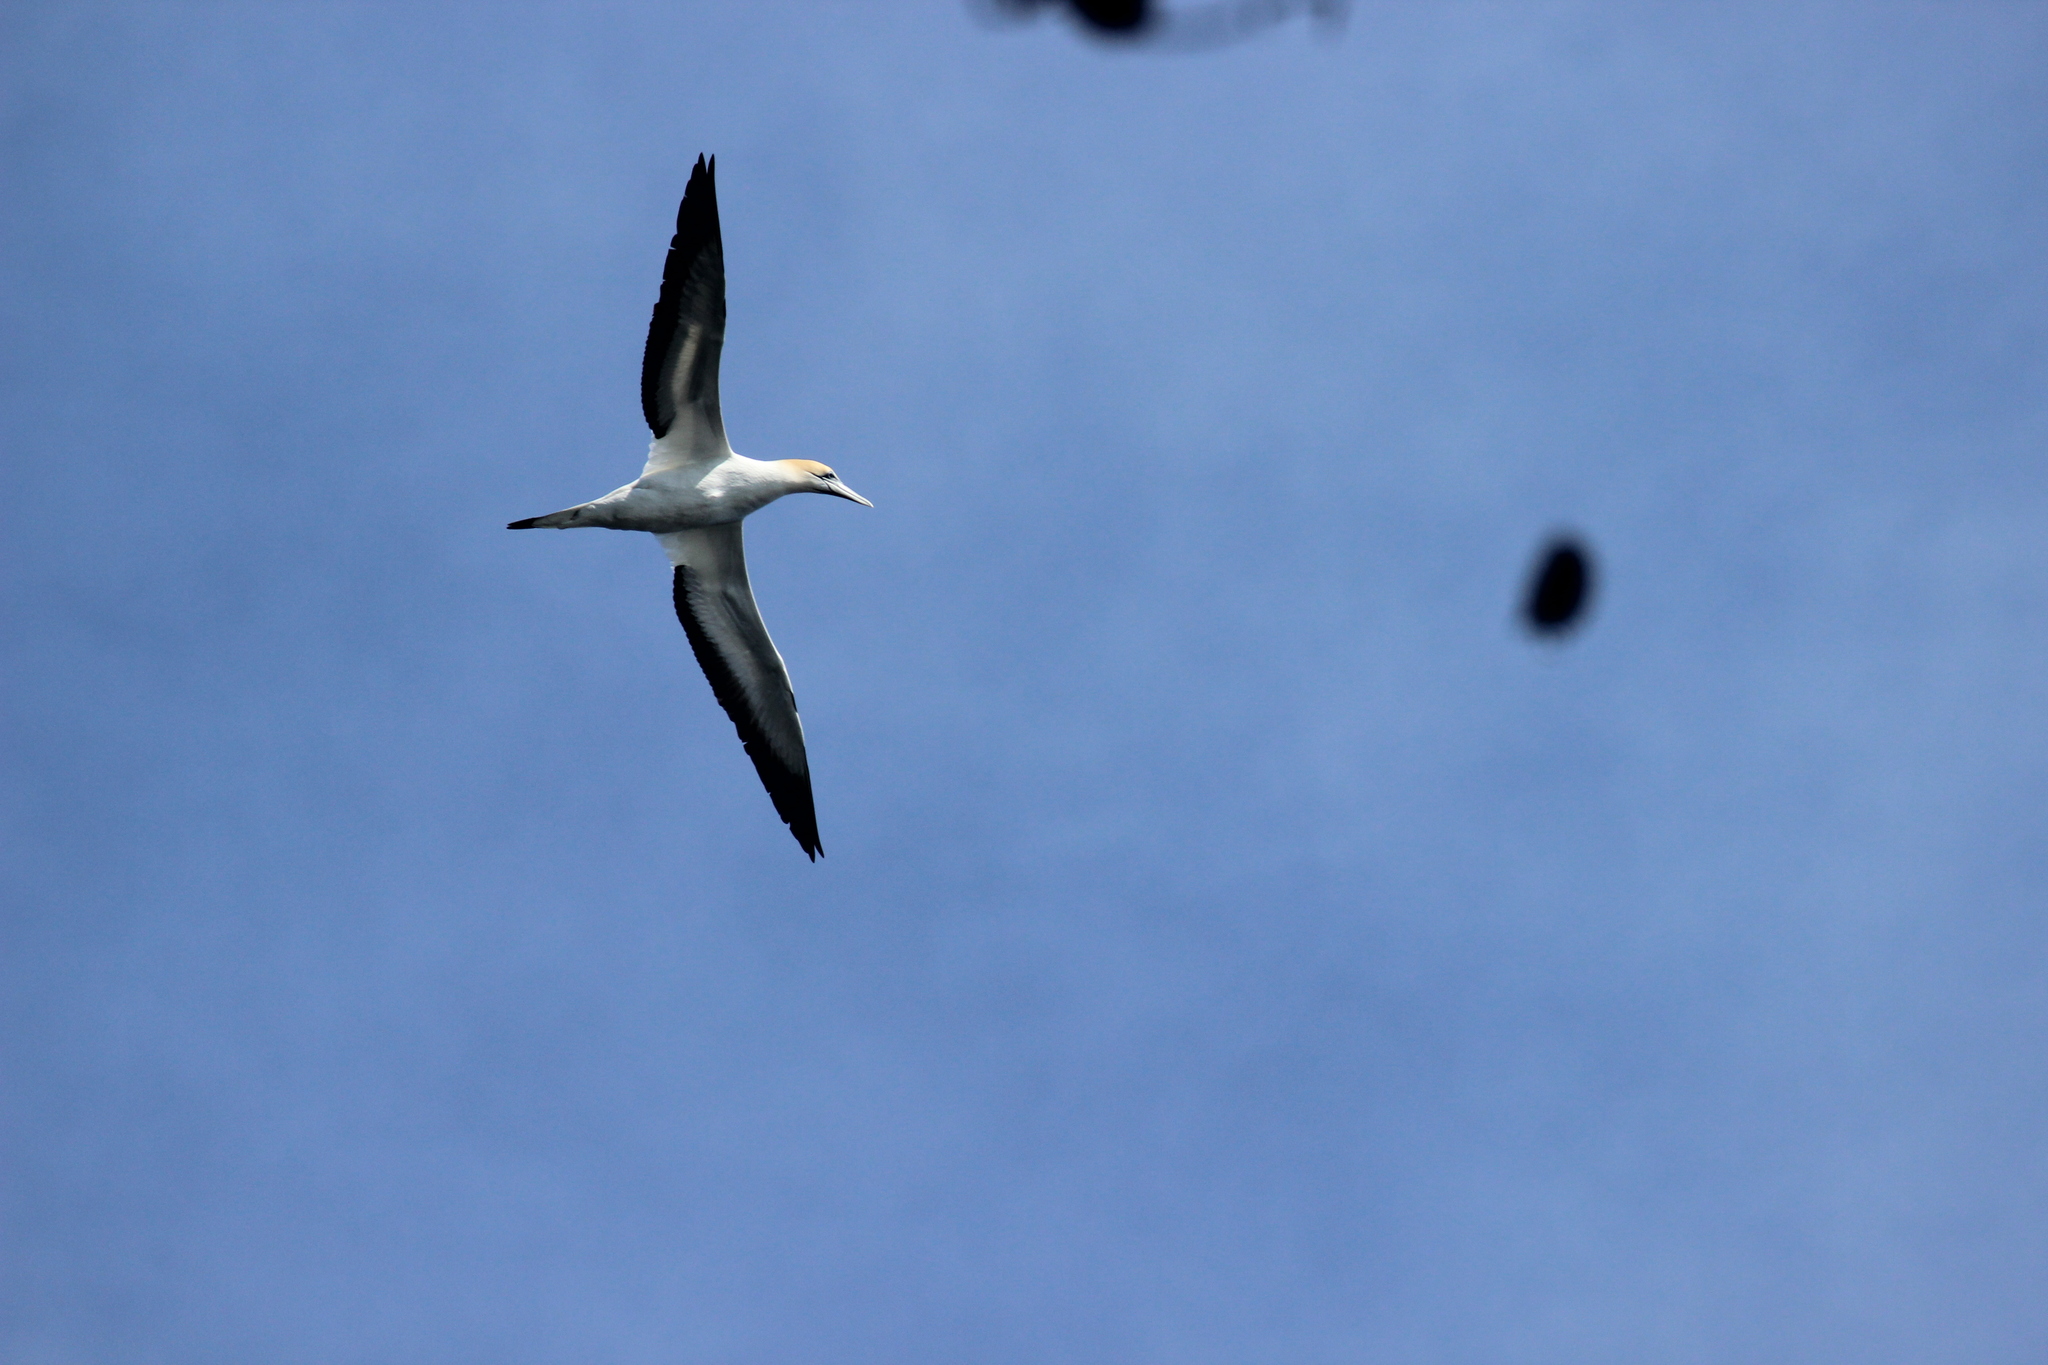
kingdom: Animalia
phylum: Chordata
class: Aves
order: Suliformes
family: Sulidae
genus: Morus
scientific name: Morus serrator
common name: Australasian gannet
